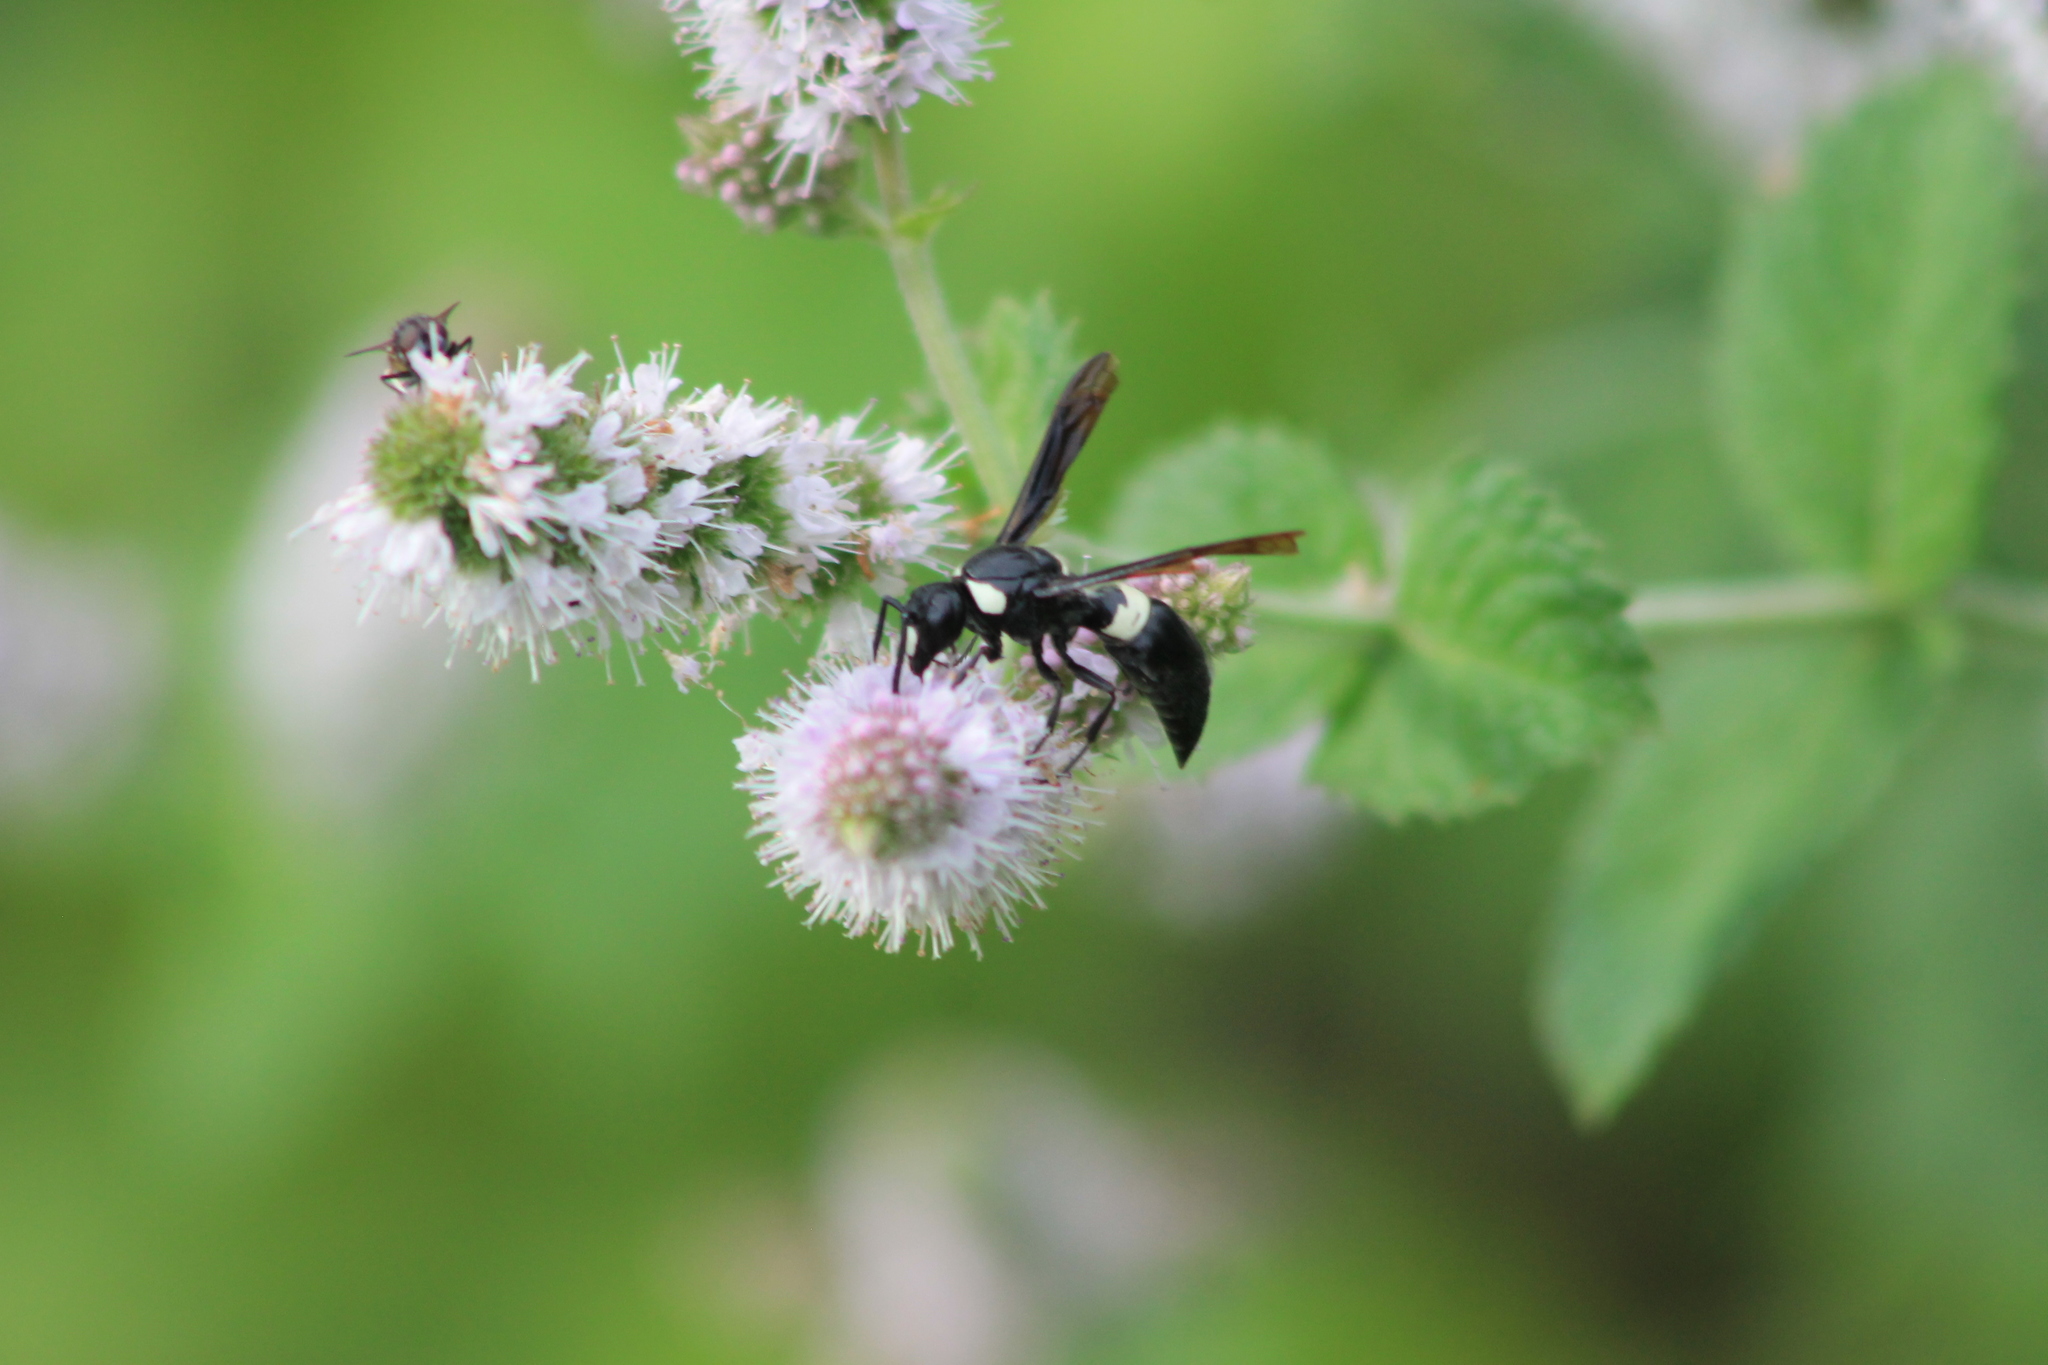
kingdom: Animalia
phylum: Arthropoda
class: Insecta
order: Hymenoptera
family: Eumenidae
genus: Monobia
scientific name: Monobia quadridens
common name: Four-toothed mason wasp
